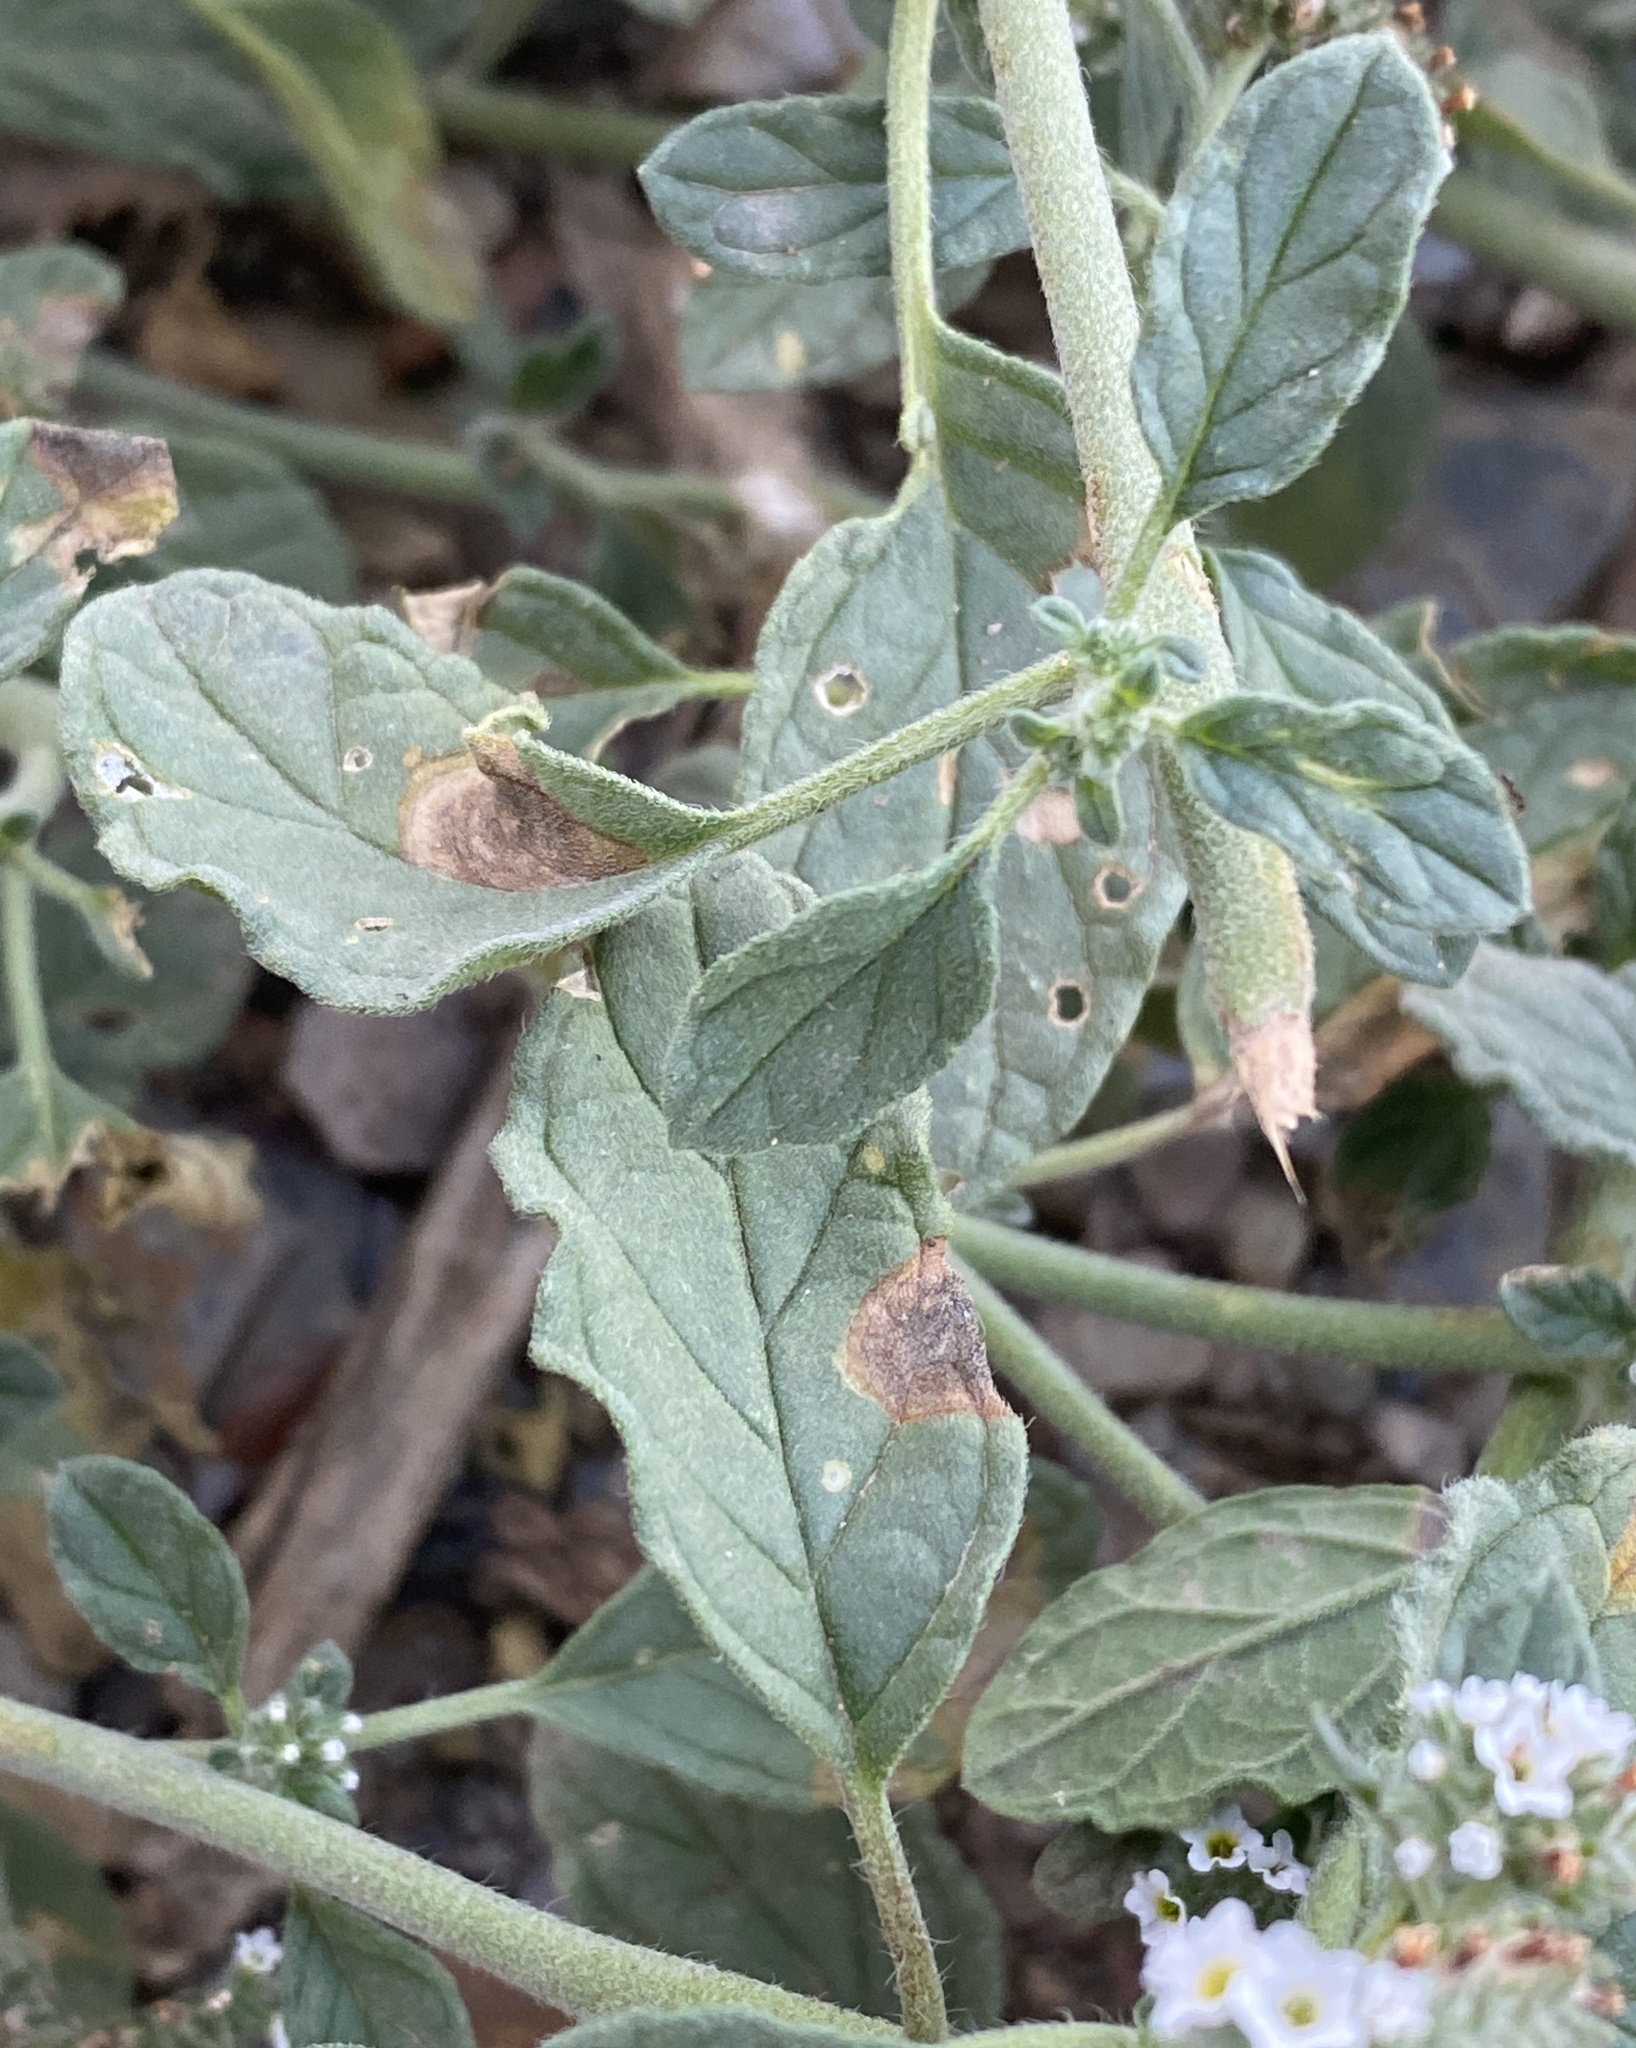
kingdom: Plantae
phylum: Tracheophyta
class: Magnoliopsida
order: Boraginales
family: Heliotropiaceae
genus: Heliotropium
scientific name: Heliotropium europaeum
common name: European heliotrope
